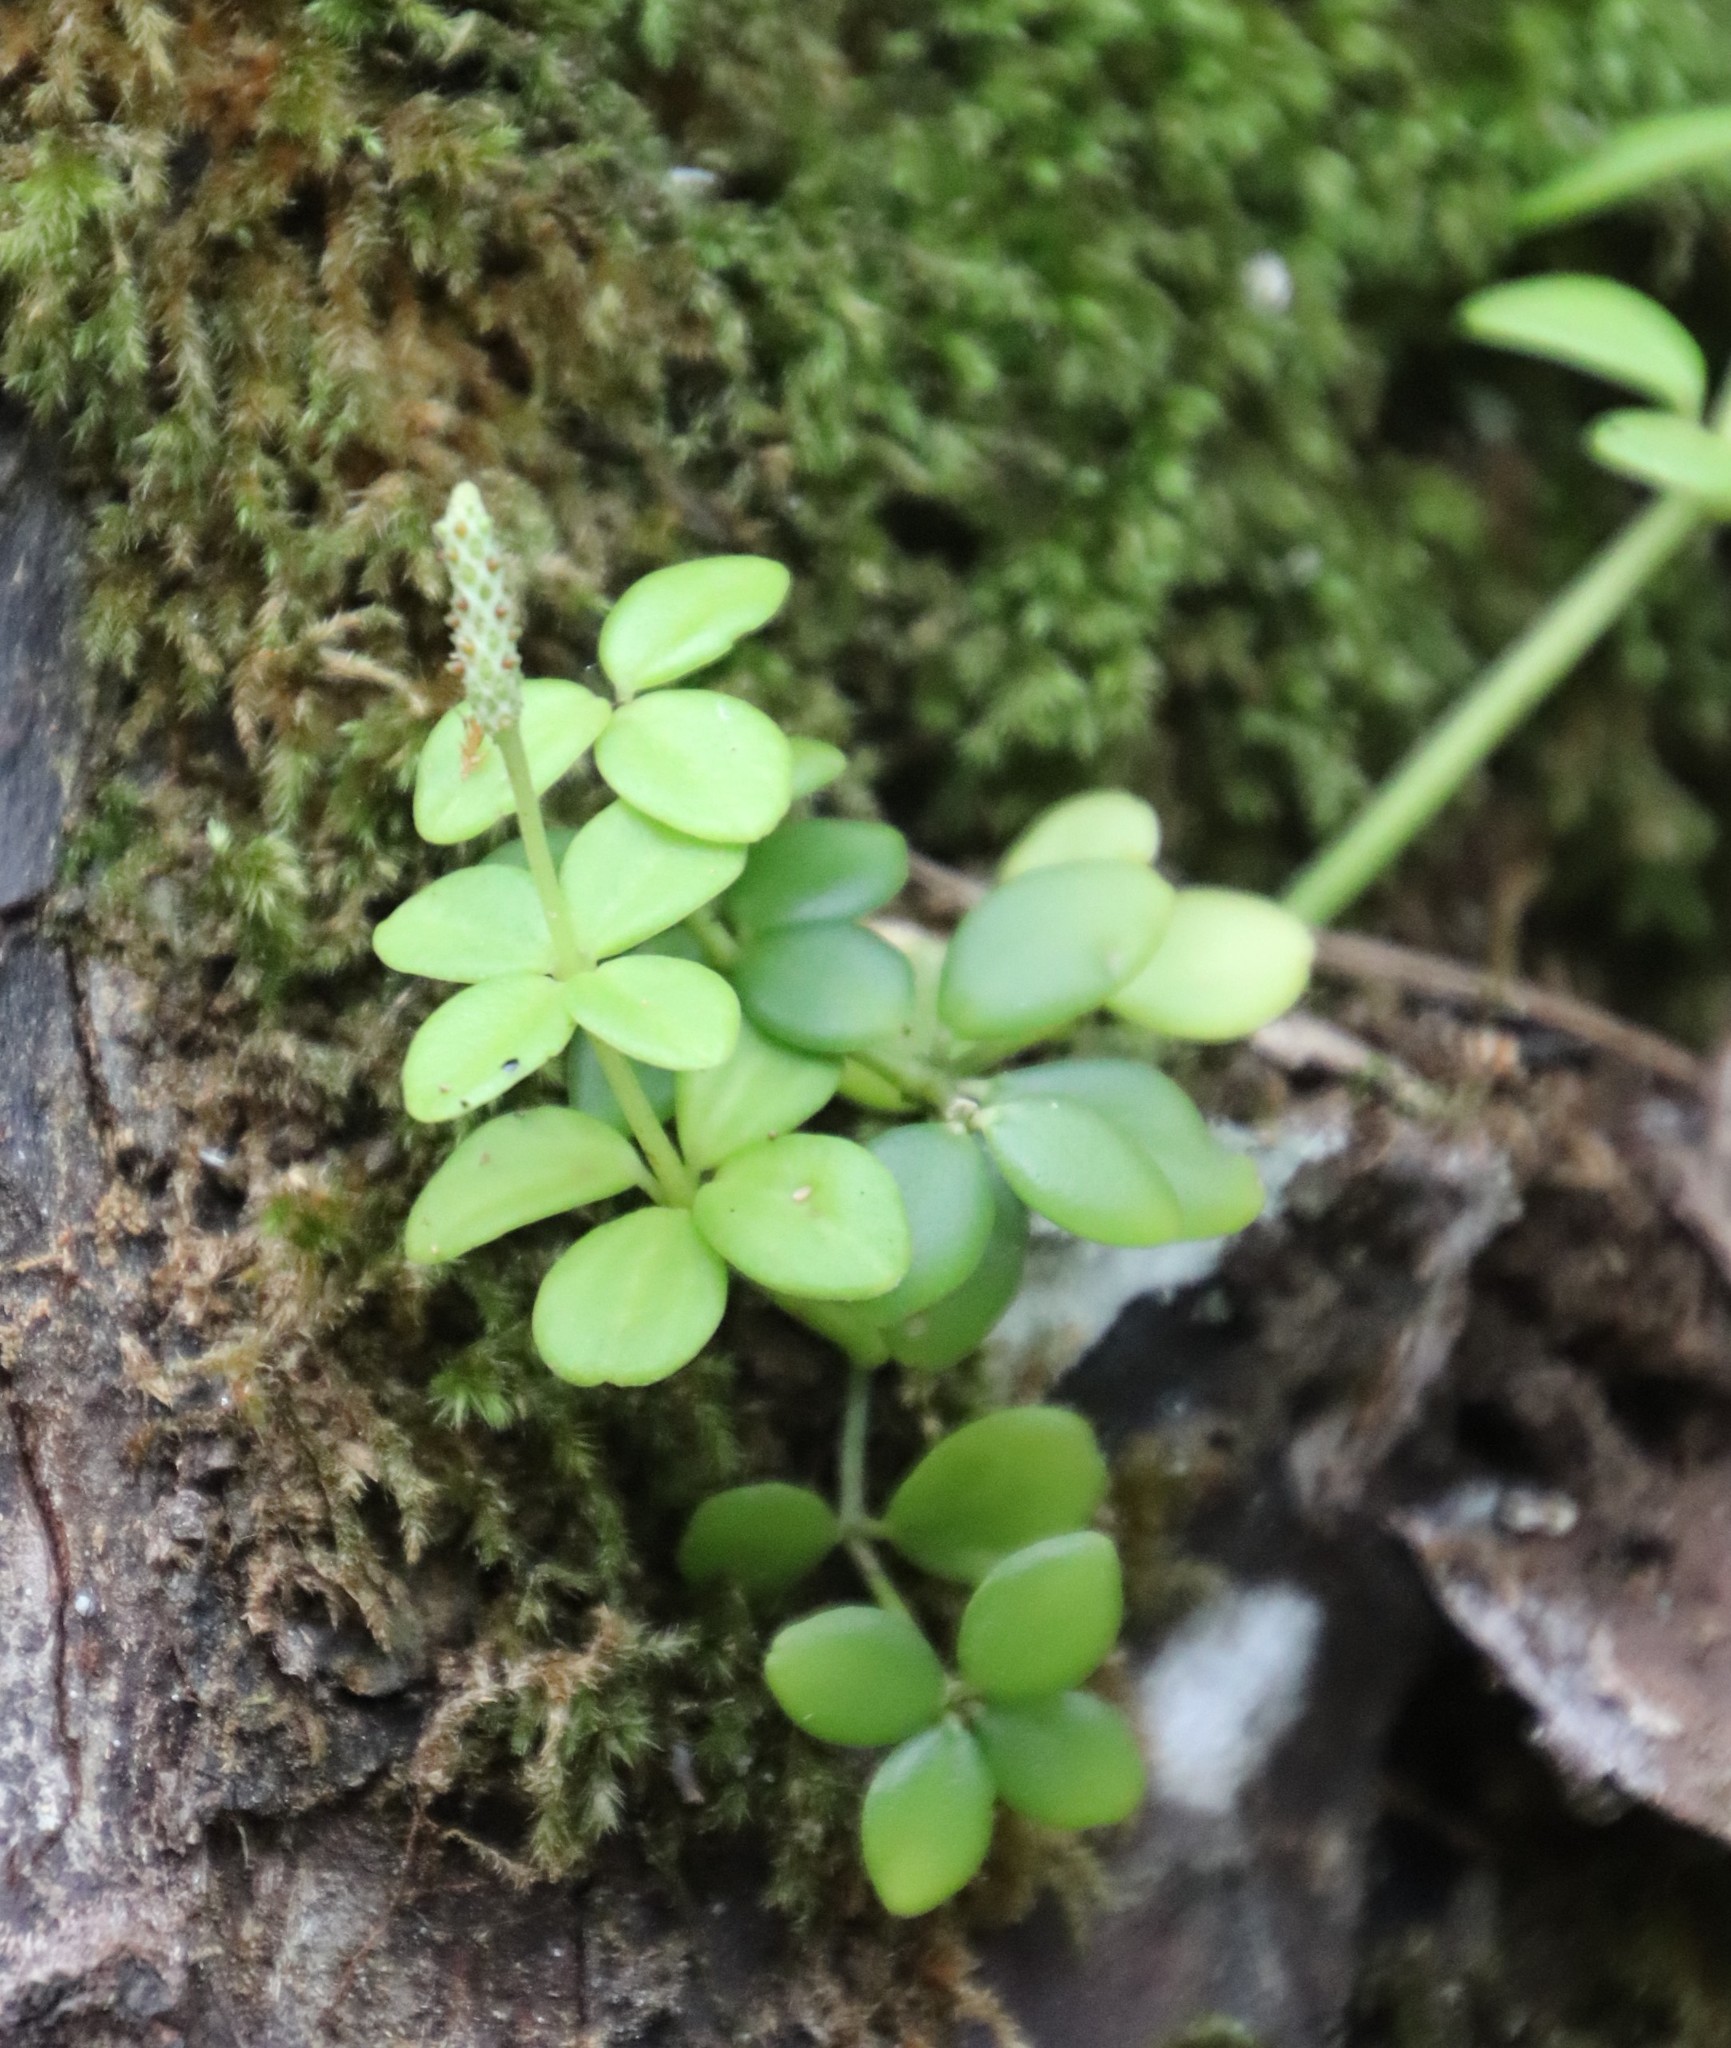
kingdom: Plantae
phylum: Tracheophyta
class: Magnoliopsida
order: Piperales
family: Piperaceae
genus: Peperomia
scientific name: Peperomia tetraphylla
